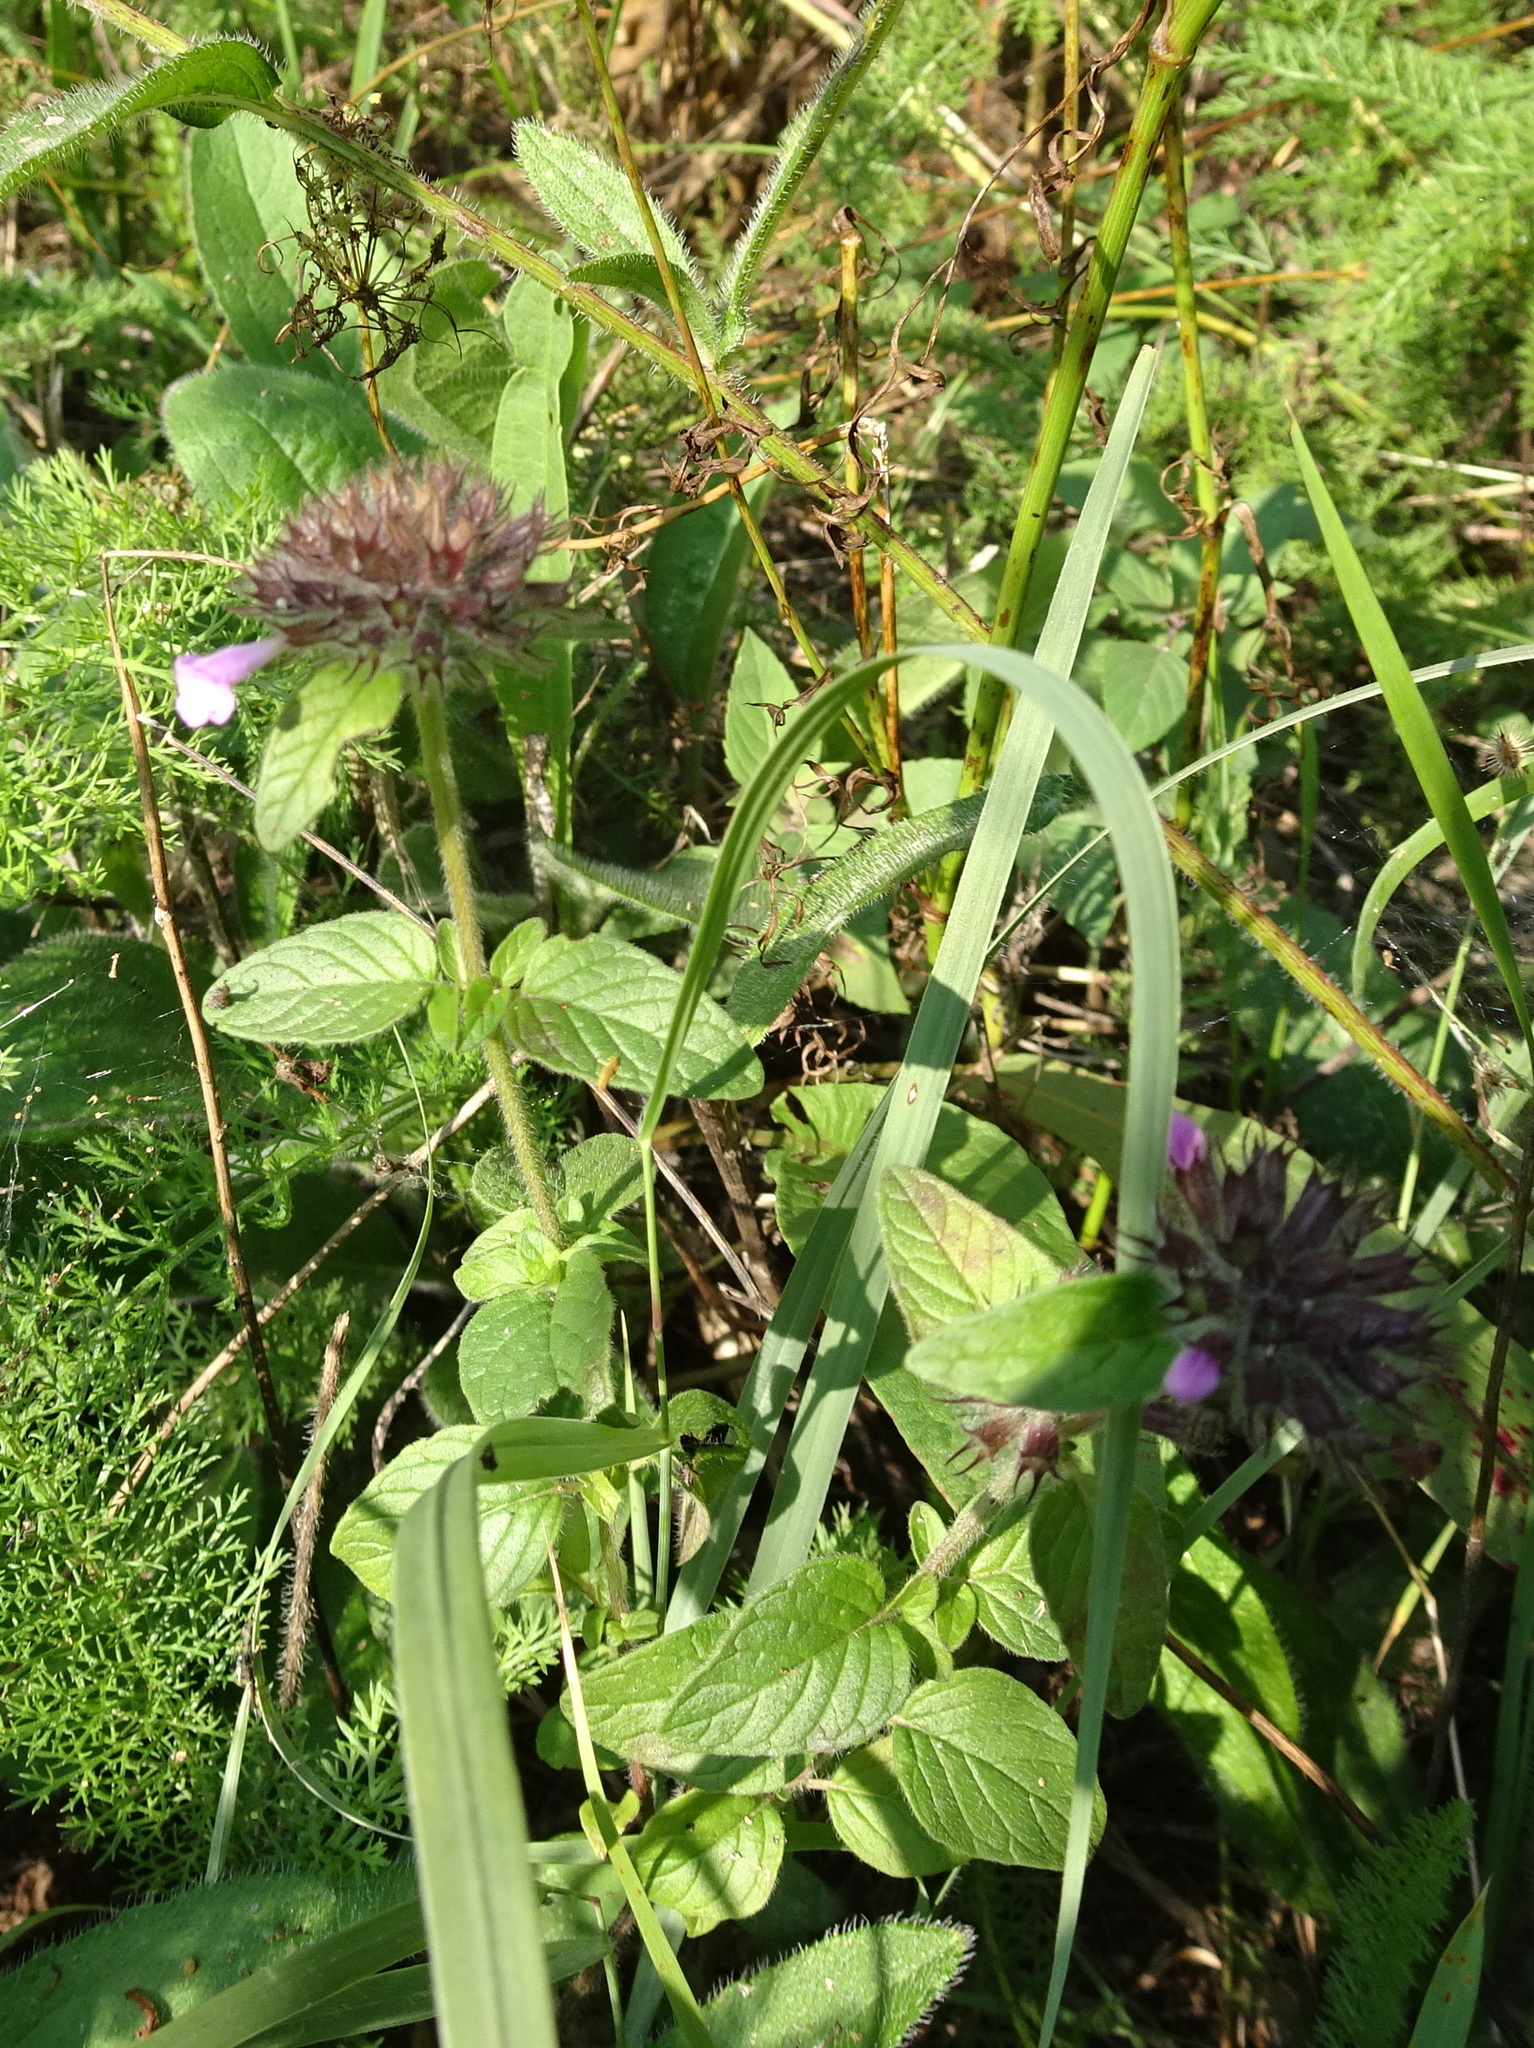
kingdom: Plantae
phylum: Tracheophyta
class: Magnoliopsida
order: Lamiales
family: Lamiaceae
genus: Clinopodium
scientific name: Clinopodium vulgare
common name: Wild basil
